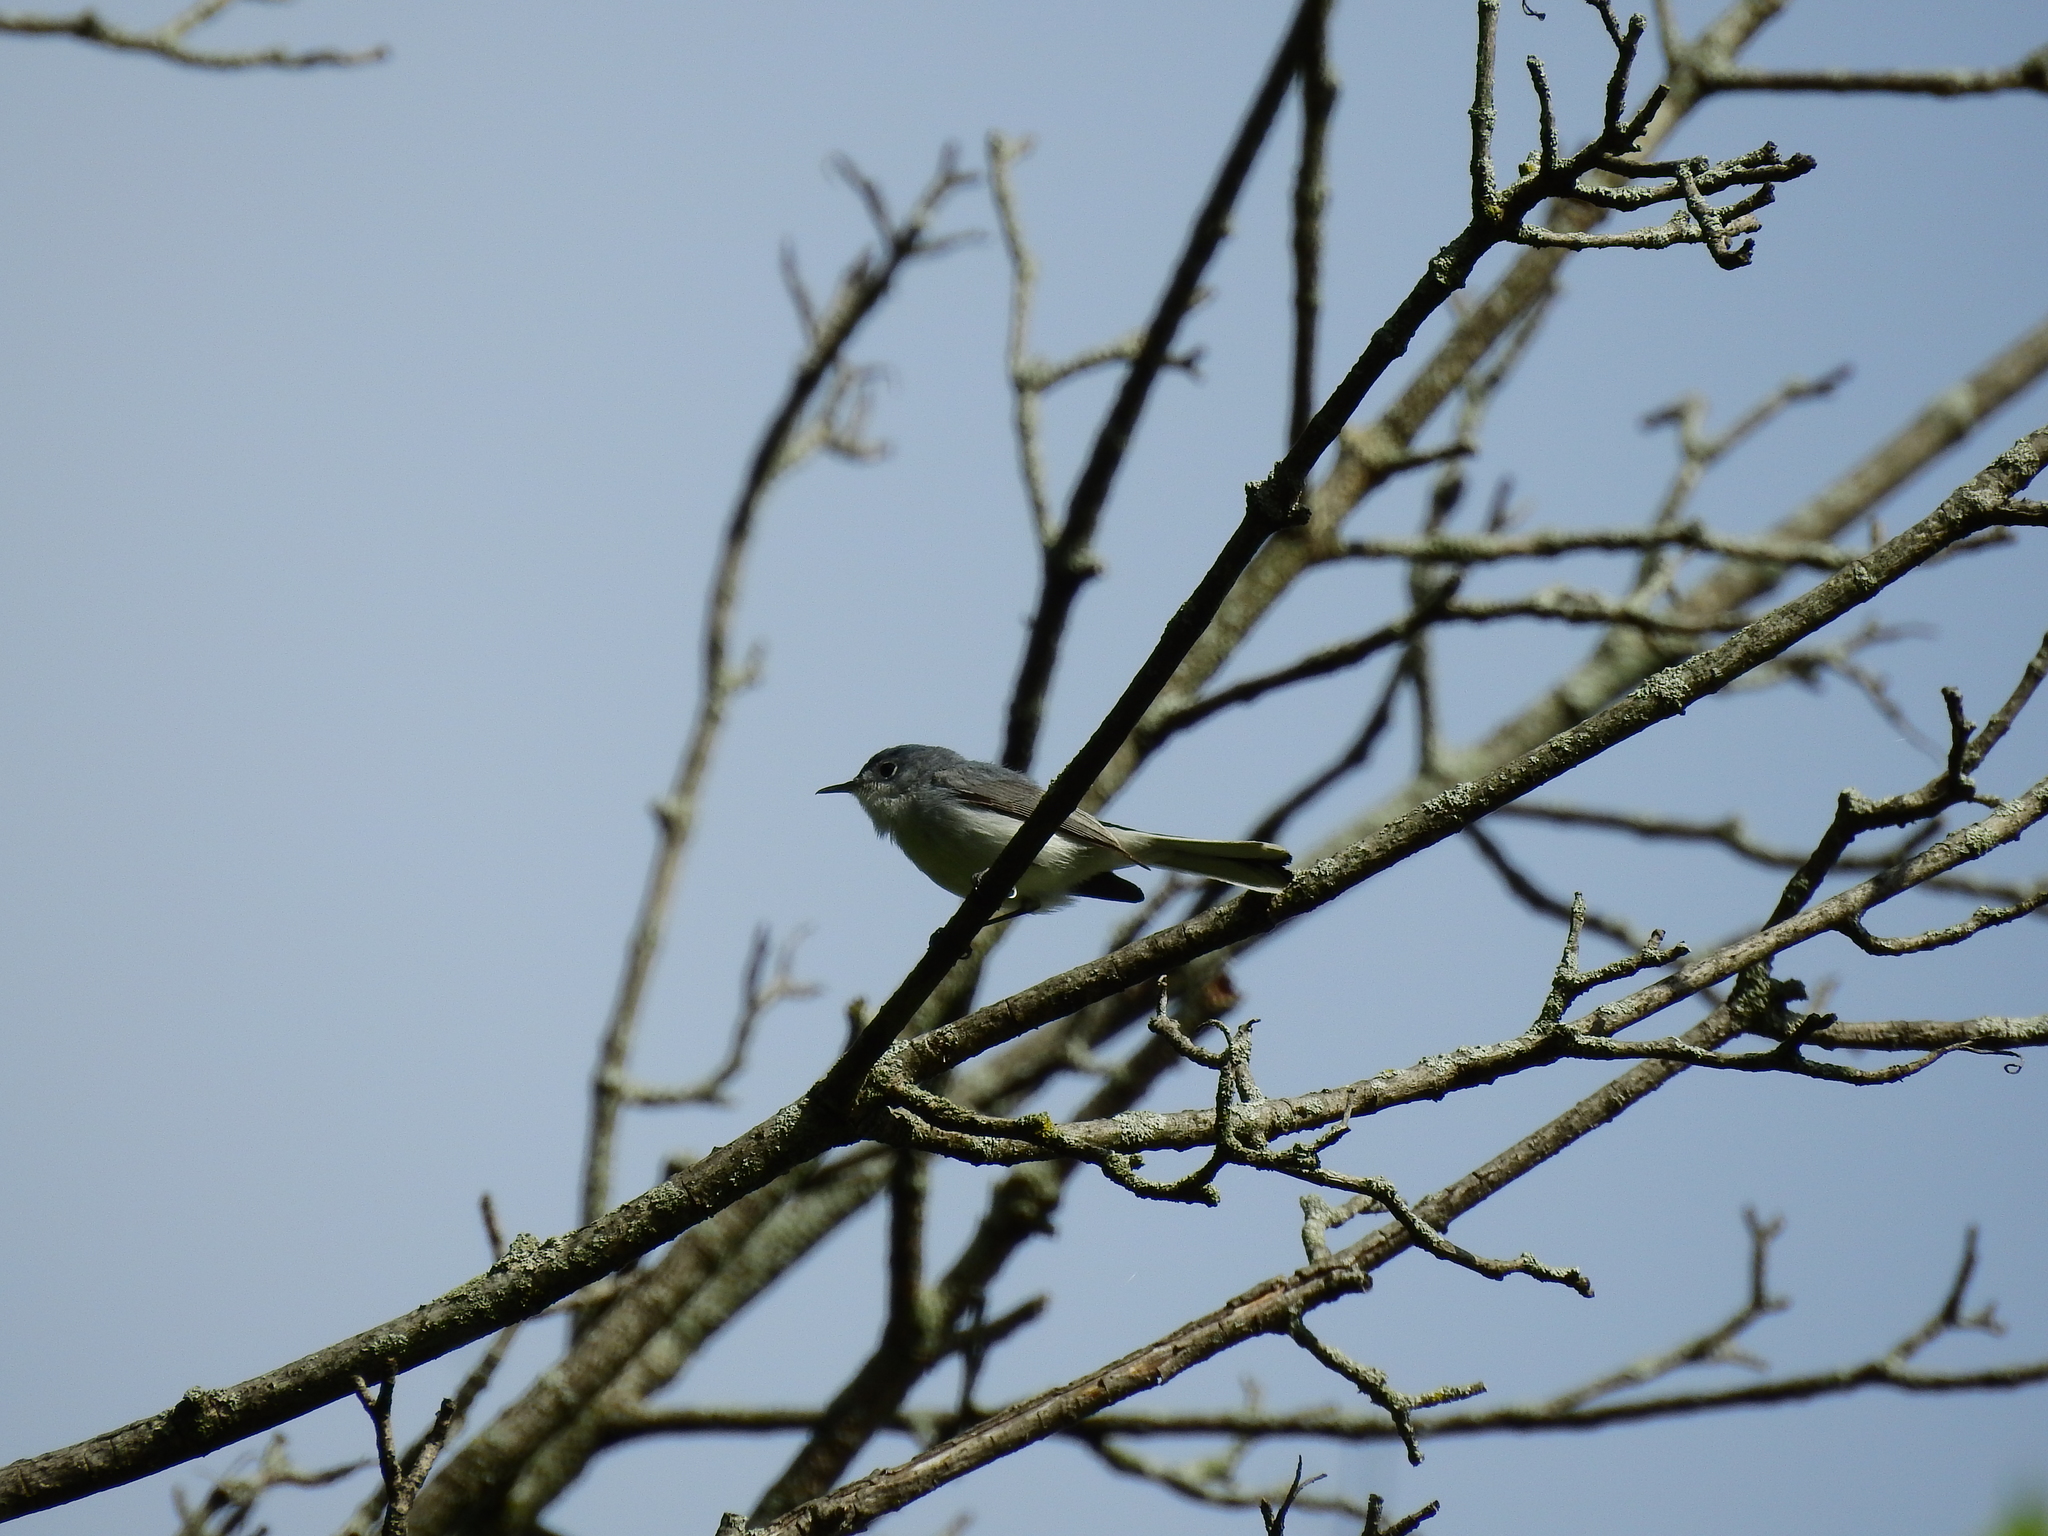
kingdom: Animalia
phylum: Chordata
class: Aves
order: Passeriformes
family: Polioptilidae
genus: Polioptila
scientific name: Polioptila caerulea
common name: Blue-gray gnatcatcher
